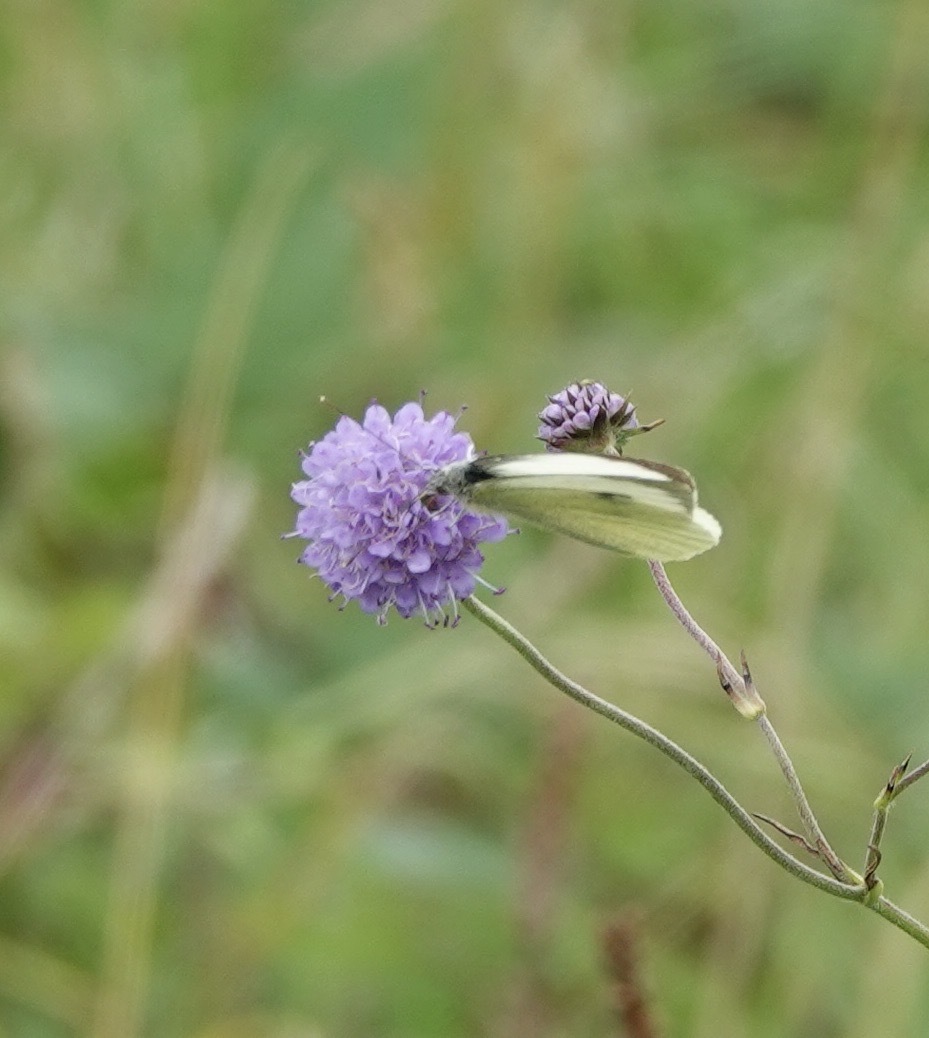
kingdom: Animalia
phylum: Arthropoda
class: Insecta
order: Lepidoptera
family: Pieridae
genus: Pieris
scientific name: Pieris brassicae
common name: Large white
